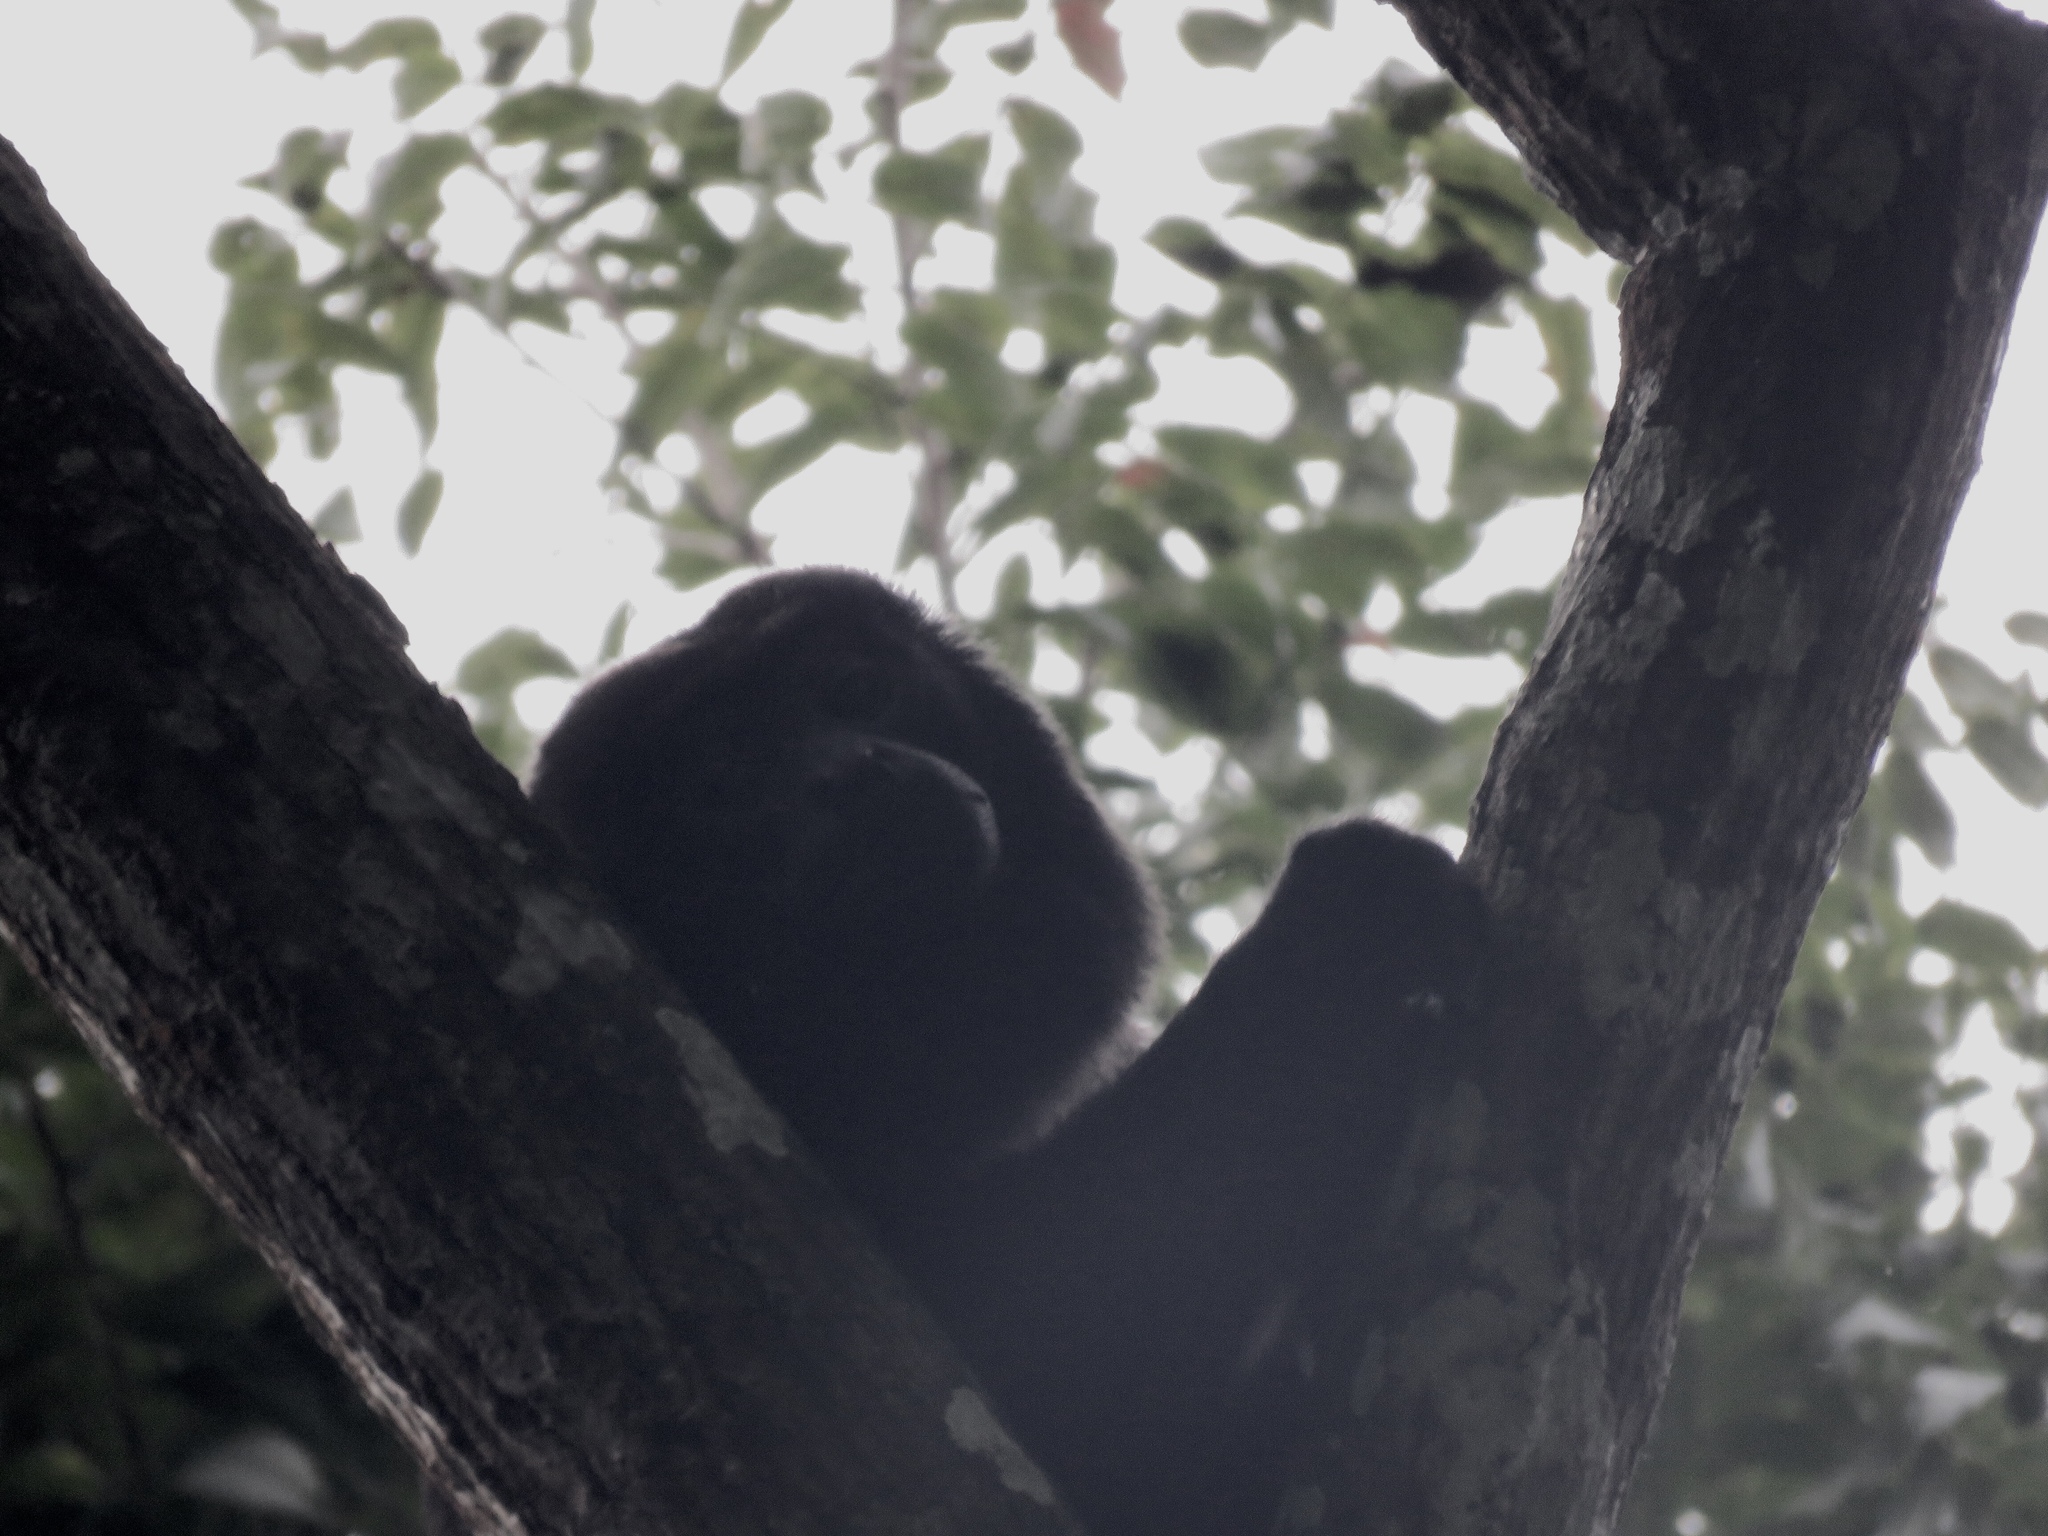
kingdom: Animalia
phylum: Chordata
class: Mammalia
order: Primates
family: Atelidae
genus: Alouatta
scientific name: Alouatta palliata
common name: Mantled howler
